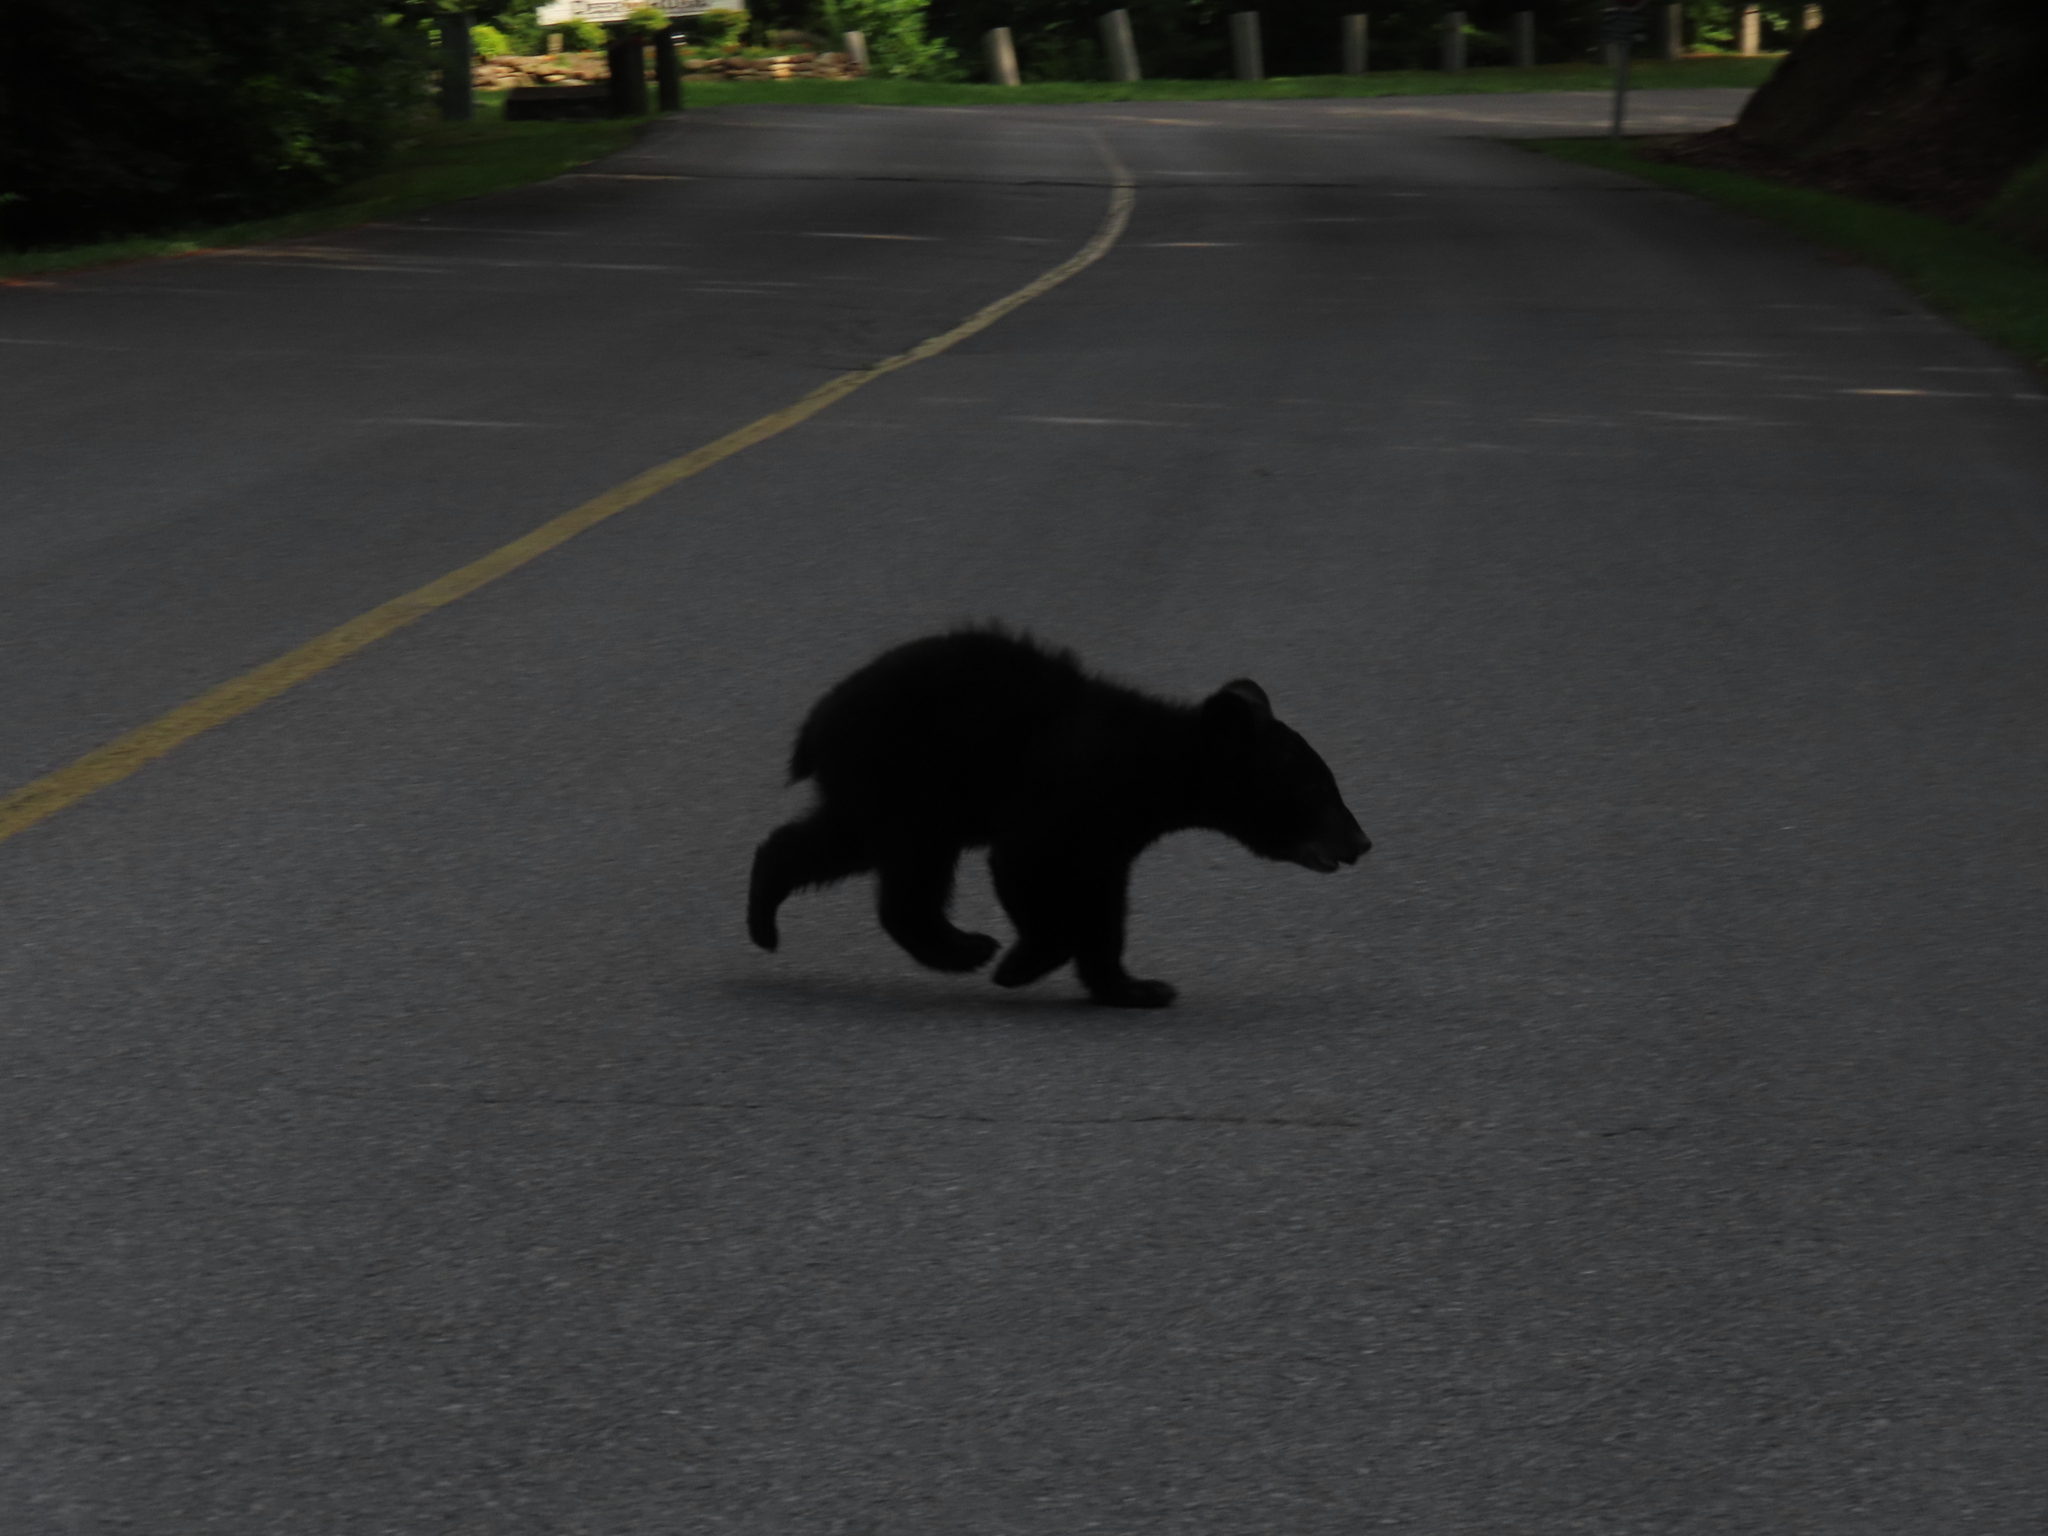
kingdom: Animalia
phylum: Chordata
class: Mammalia
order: Carnivora
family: Ursidae
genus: Ursus
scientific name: Ursus americanus
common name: American black bear
